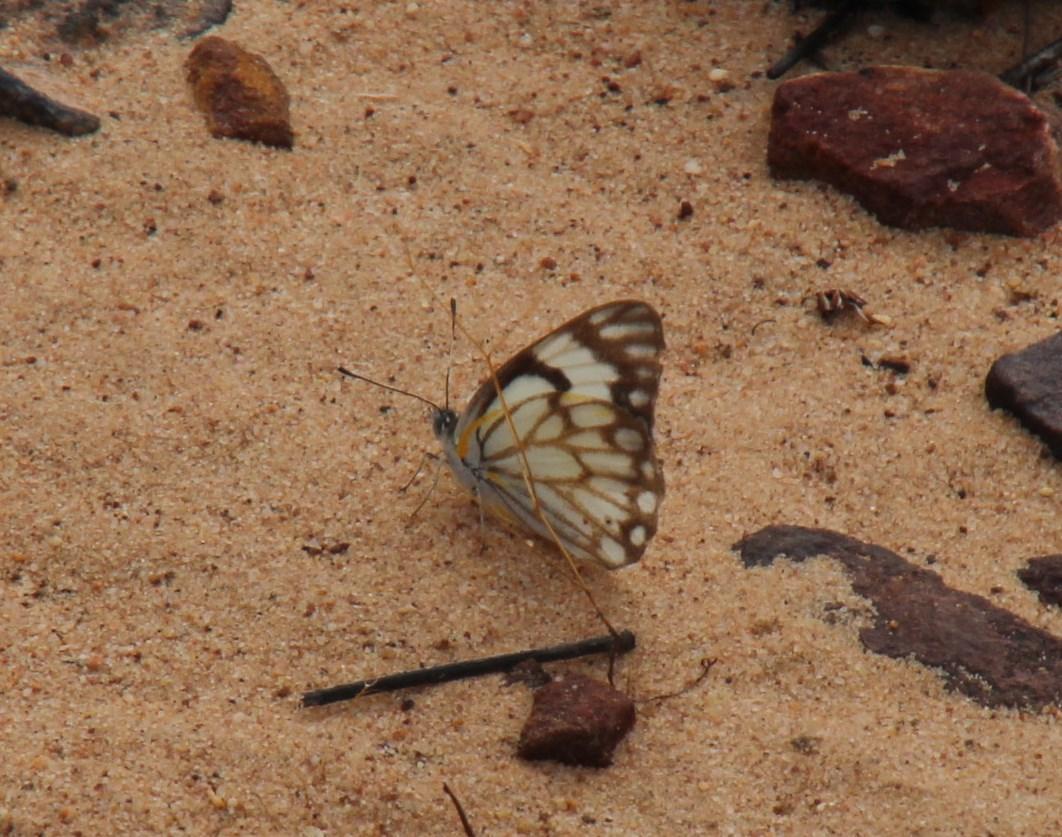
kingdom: Animalia
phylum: Arthropoda
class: Insecta
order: Lepidoptera
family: Pieridae
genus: Belenois
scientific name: Belenois aurota
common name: Brown-veined white
